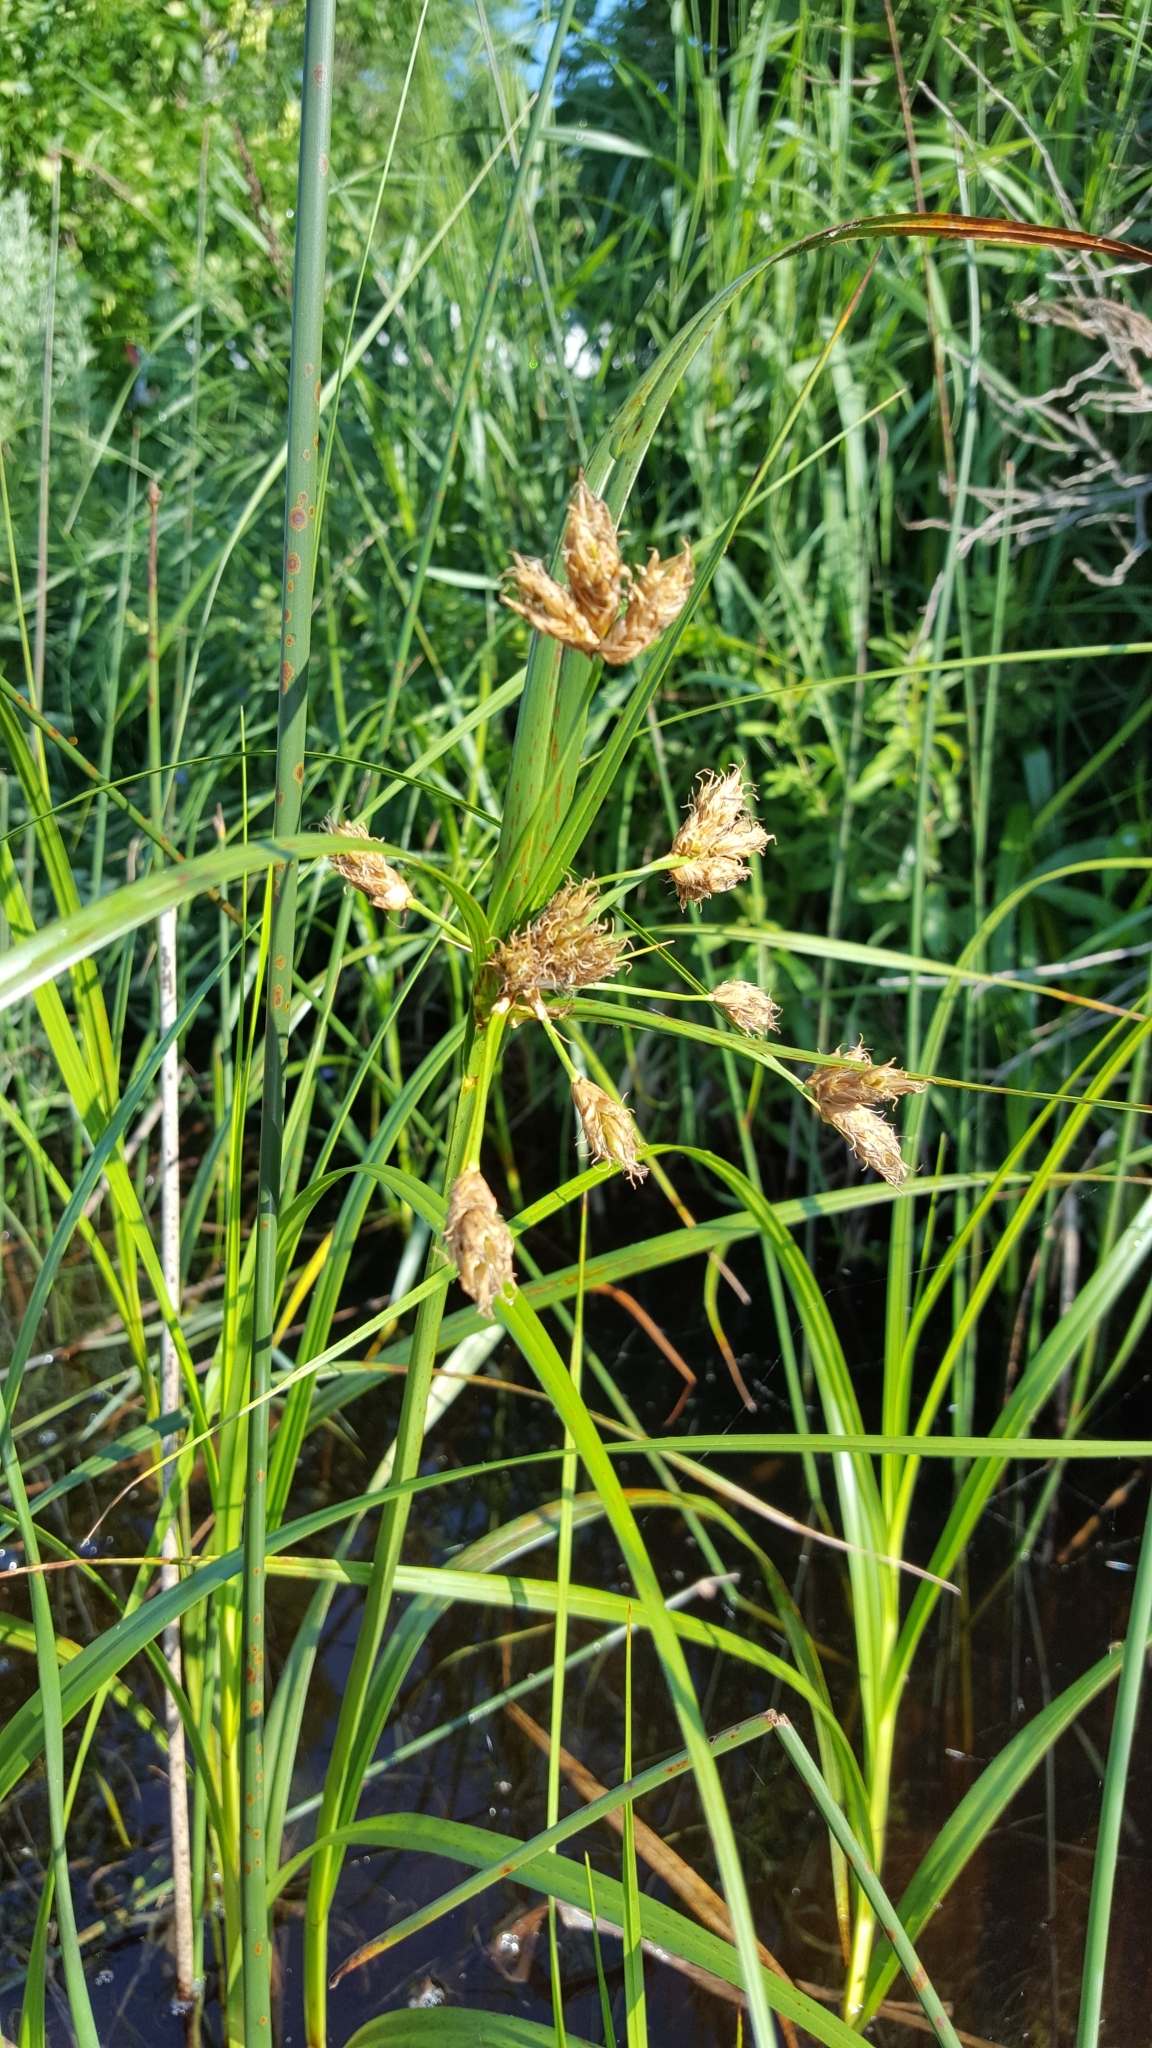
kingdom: Plantae
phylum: Tracheophyta
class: Liliopsida
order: Poales
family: Cyperaceae
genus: Bolboschoenus
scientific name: Bolboschoenus fluviatilis
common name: River bulrush
